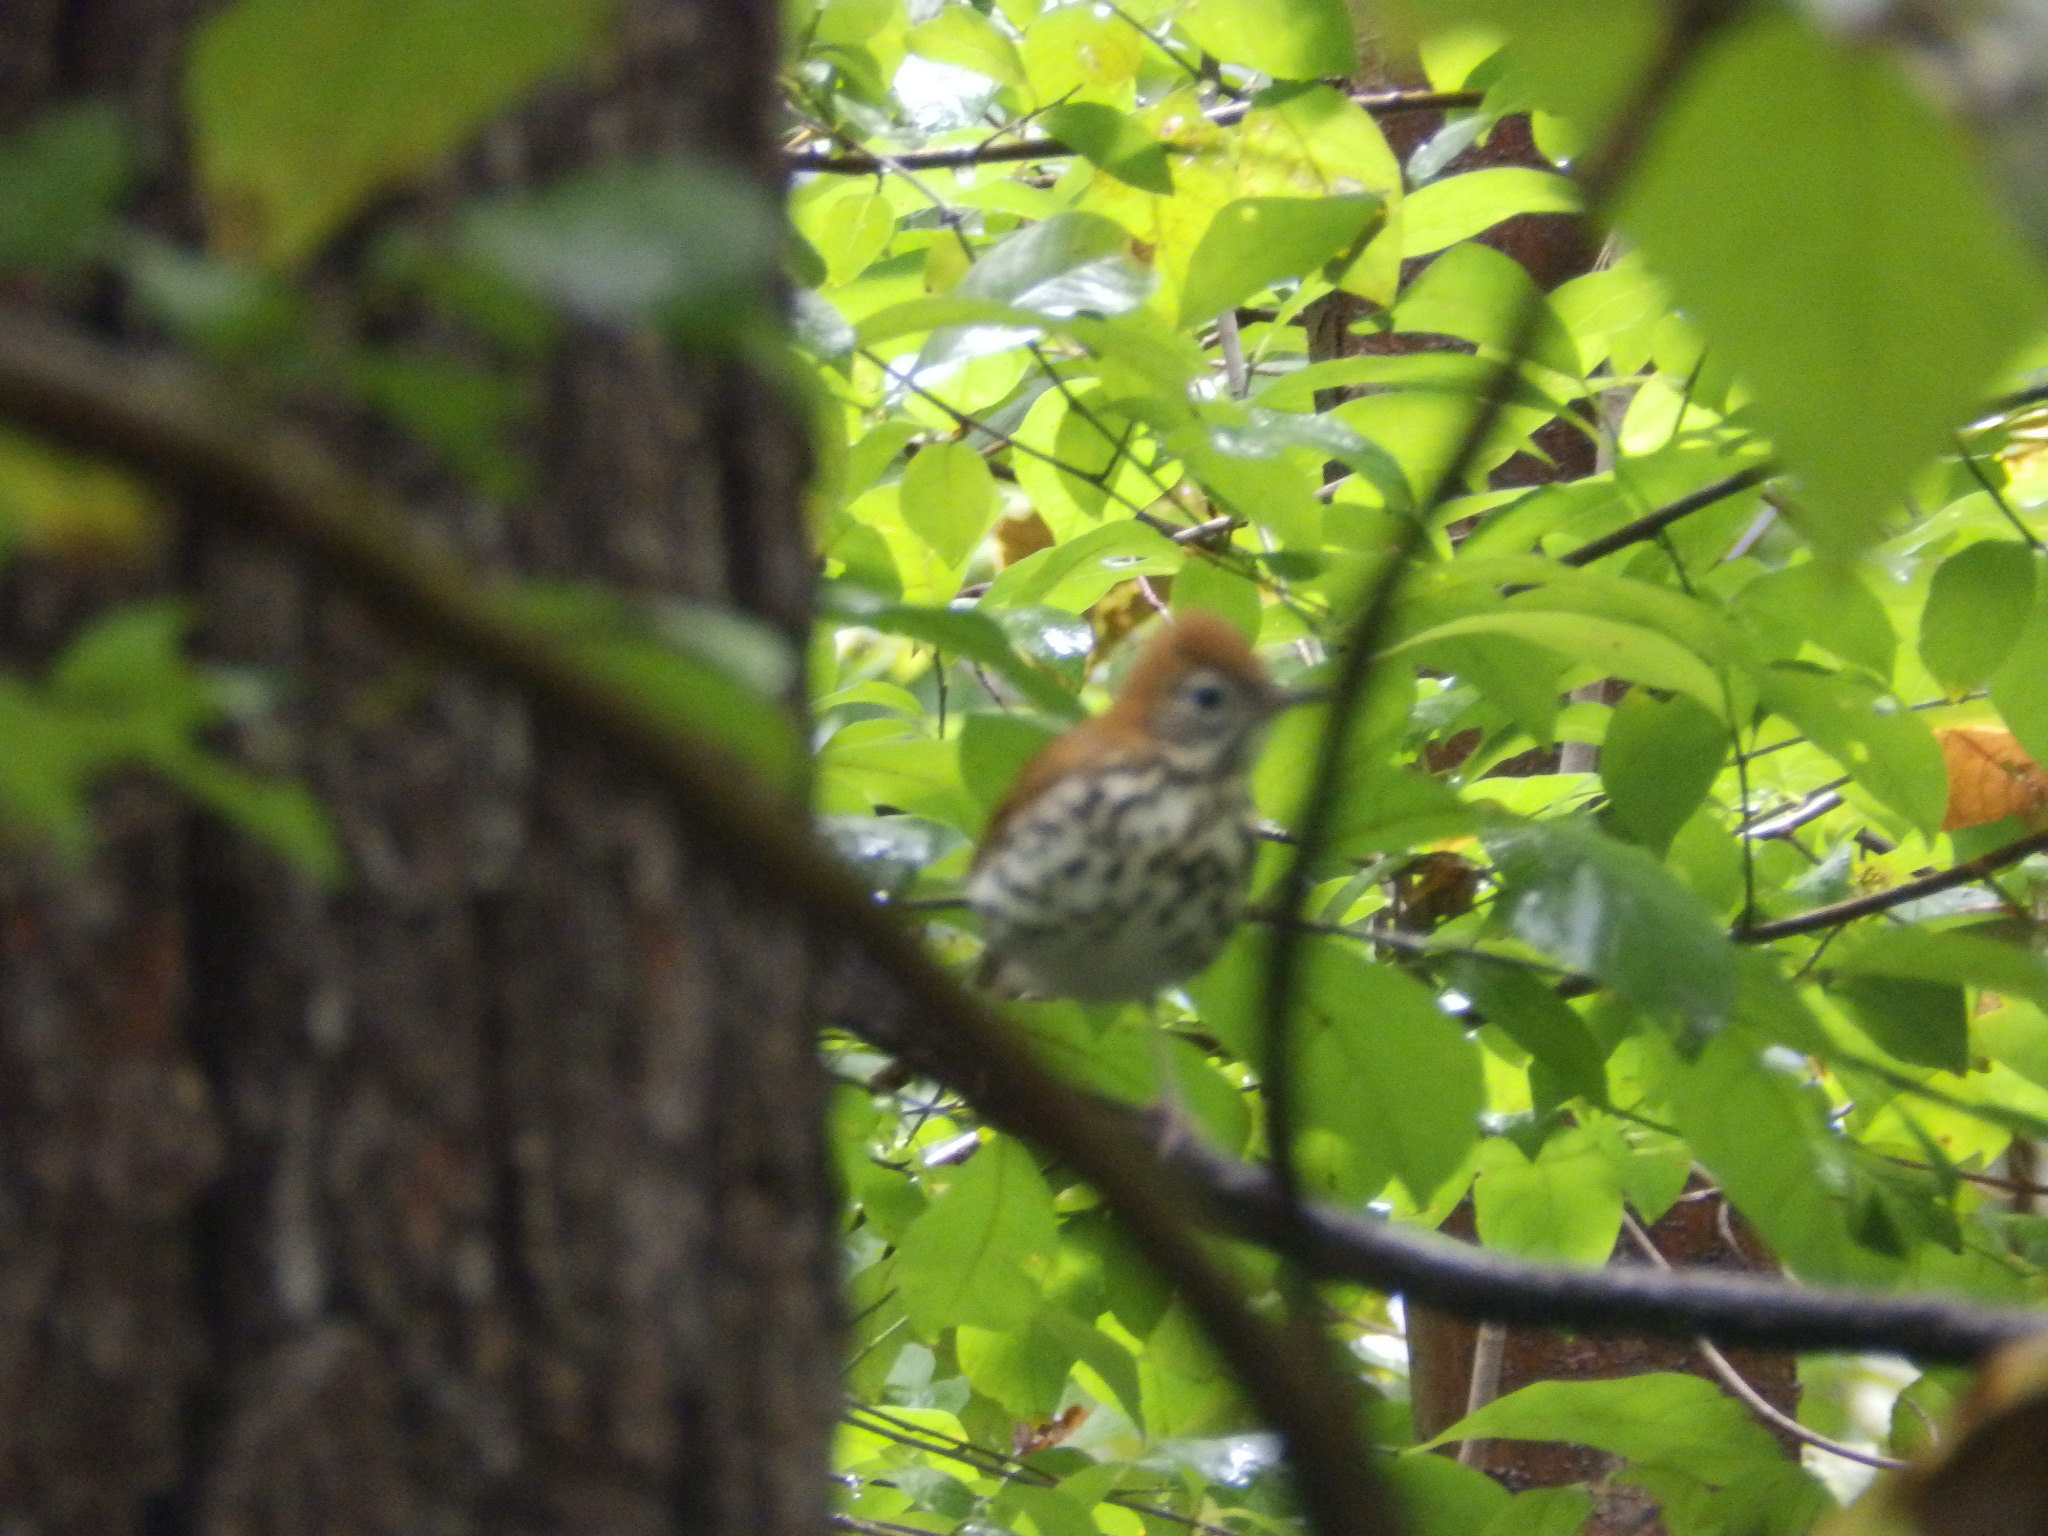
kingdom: Animalia
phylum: Chordata
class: Aves
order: Passeriformes
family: Turdidae
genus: Hylocichla
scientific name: Hylocichla mustelina
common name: Wood thrush
